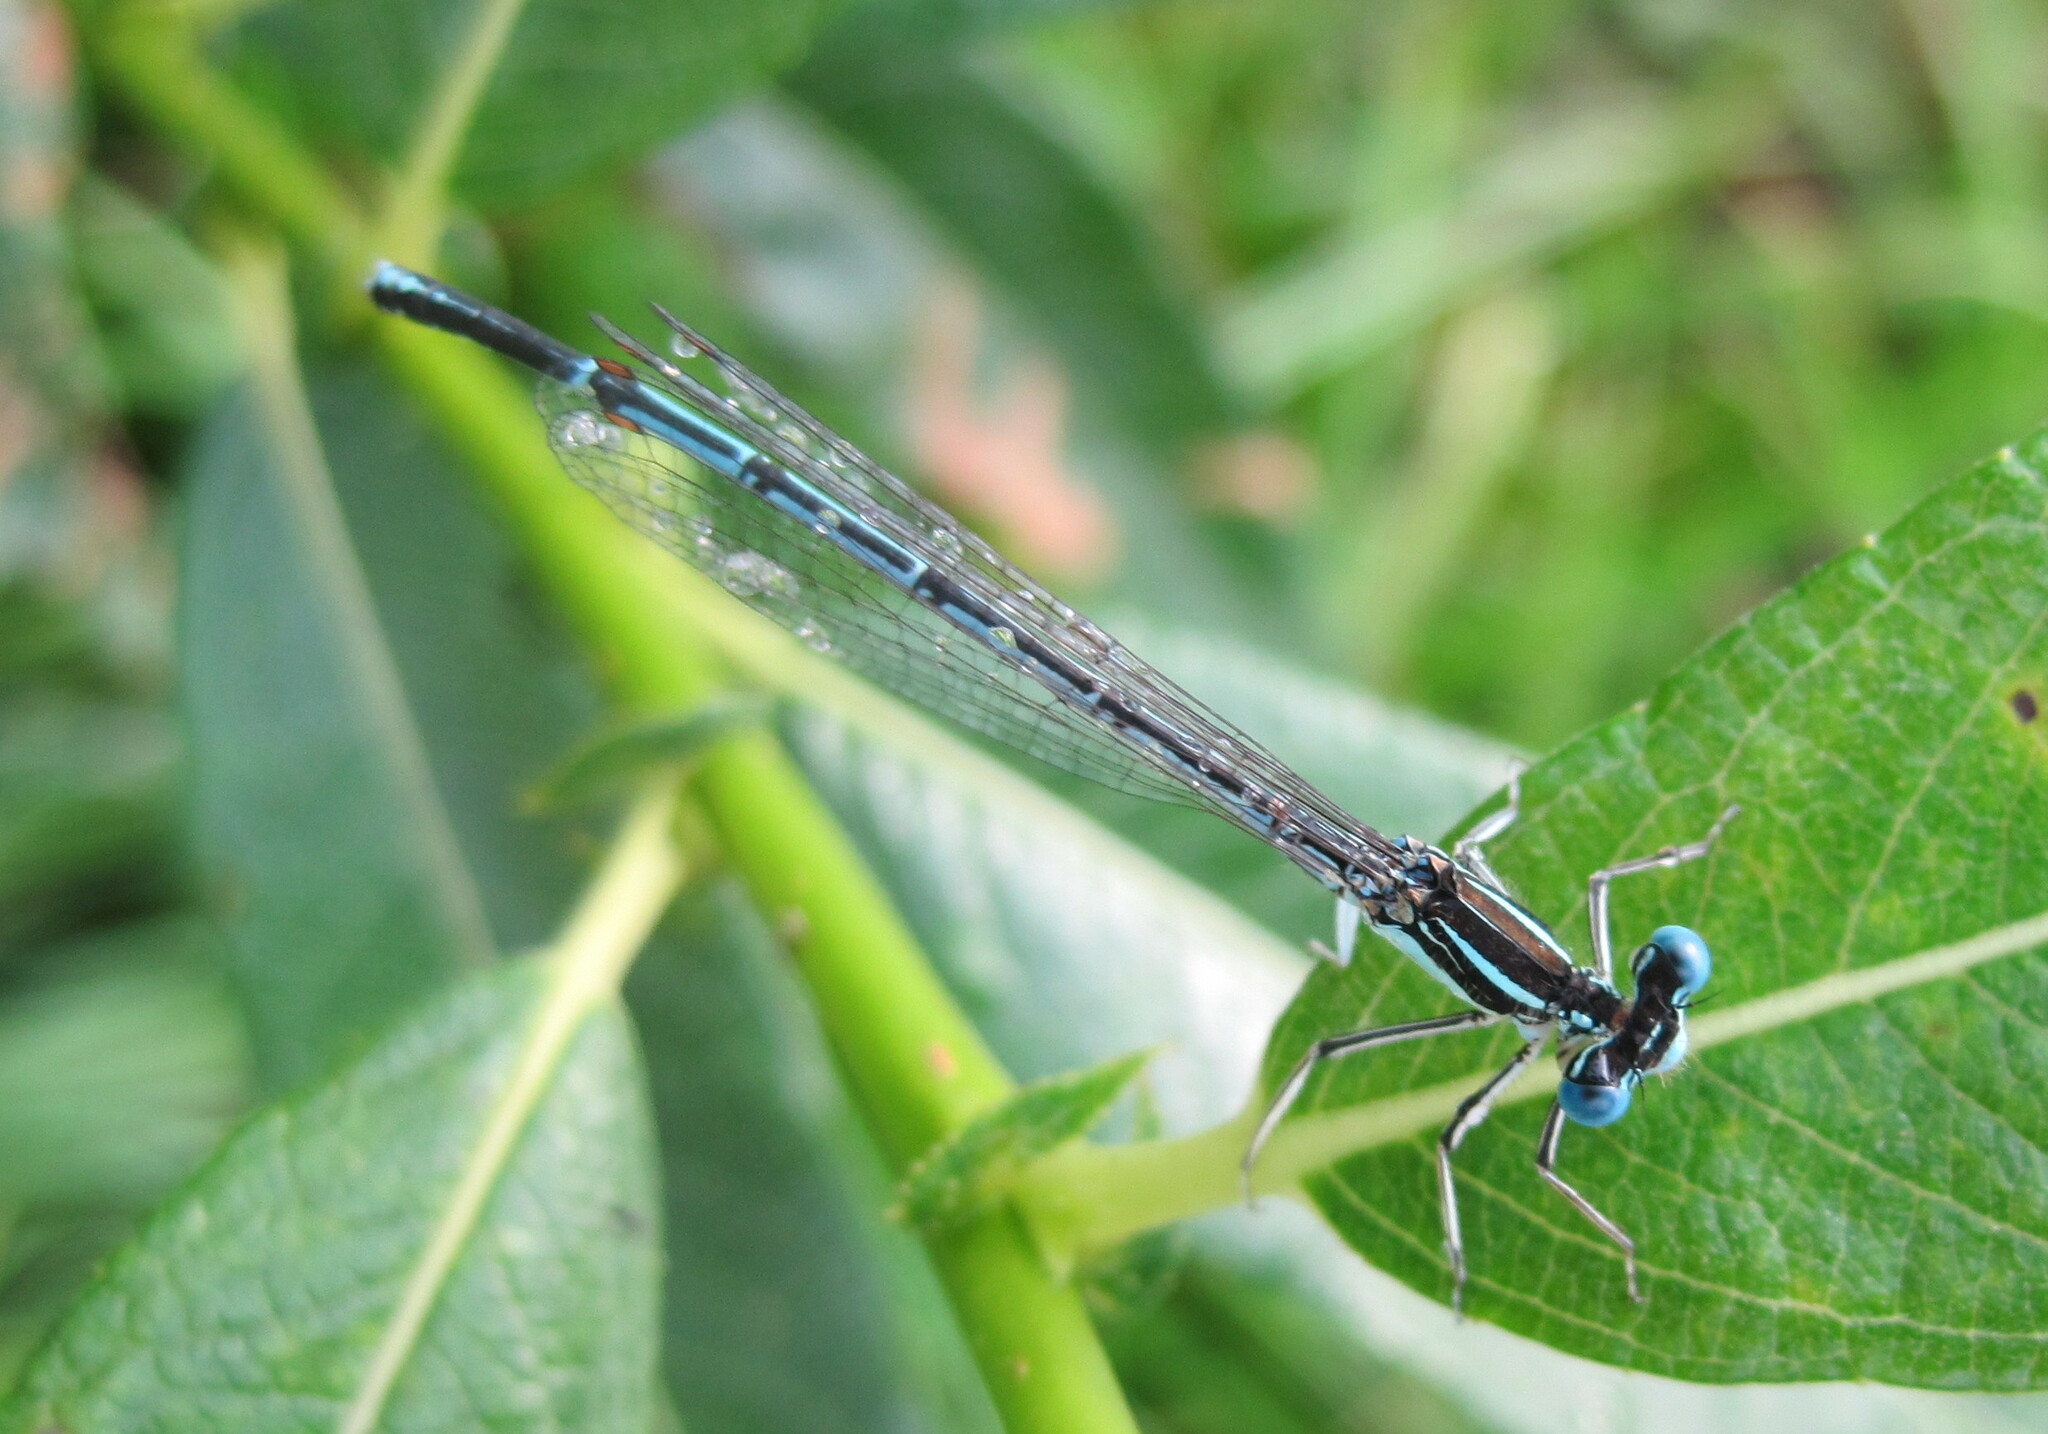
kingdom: Animalia
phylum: Arthropoda
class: Insecta
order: Odonata
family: Platycnemididae
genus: Platycnemis
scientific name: Platycnemis pennipes
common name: White-legged damselfly
